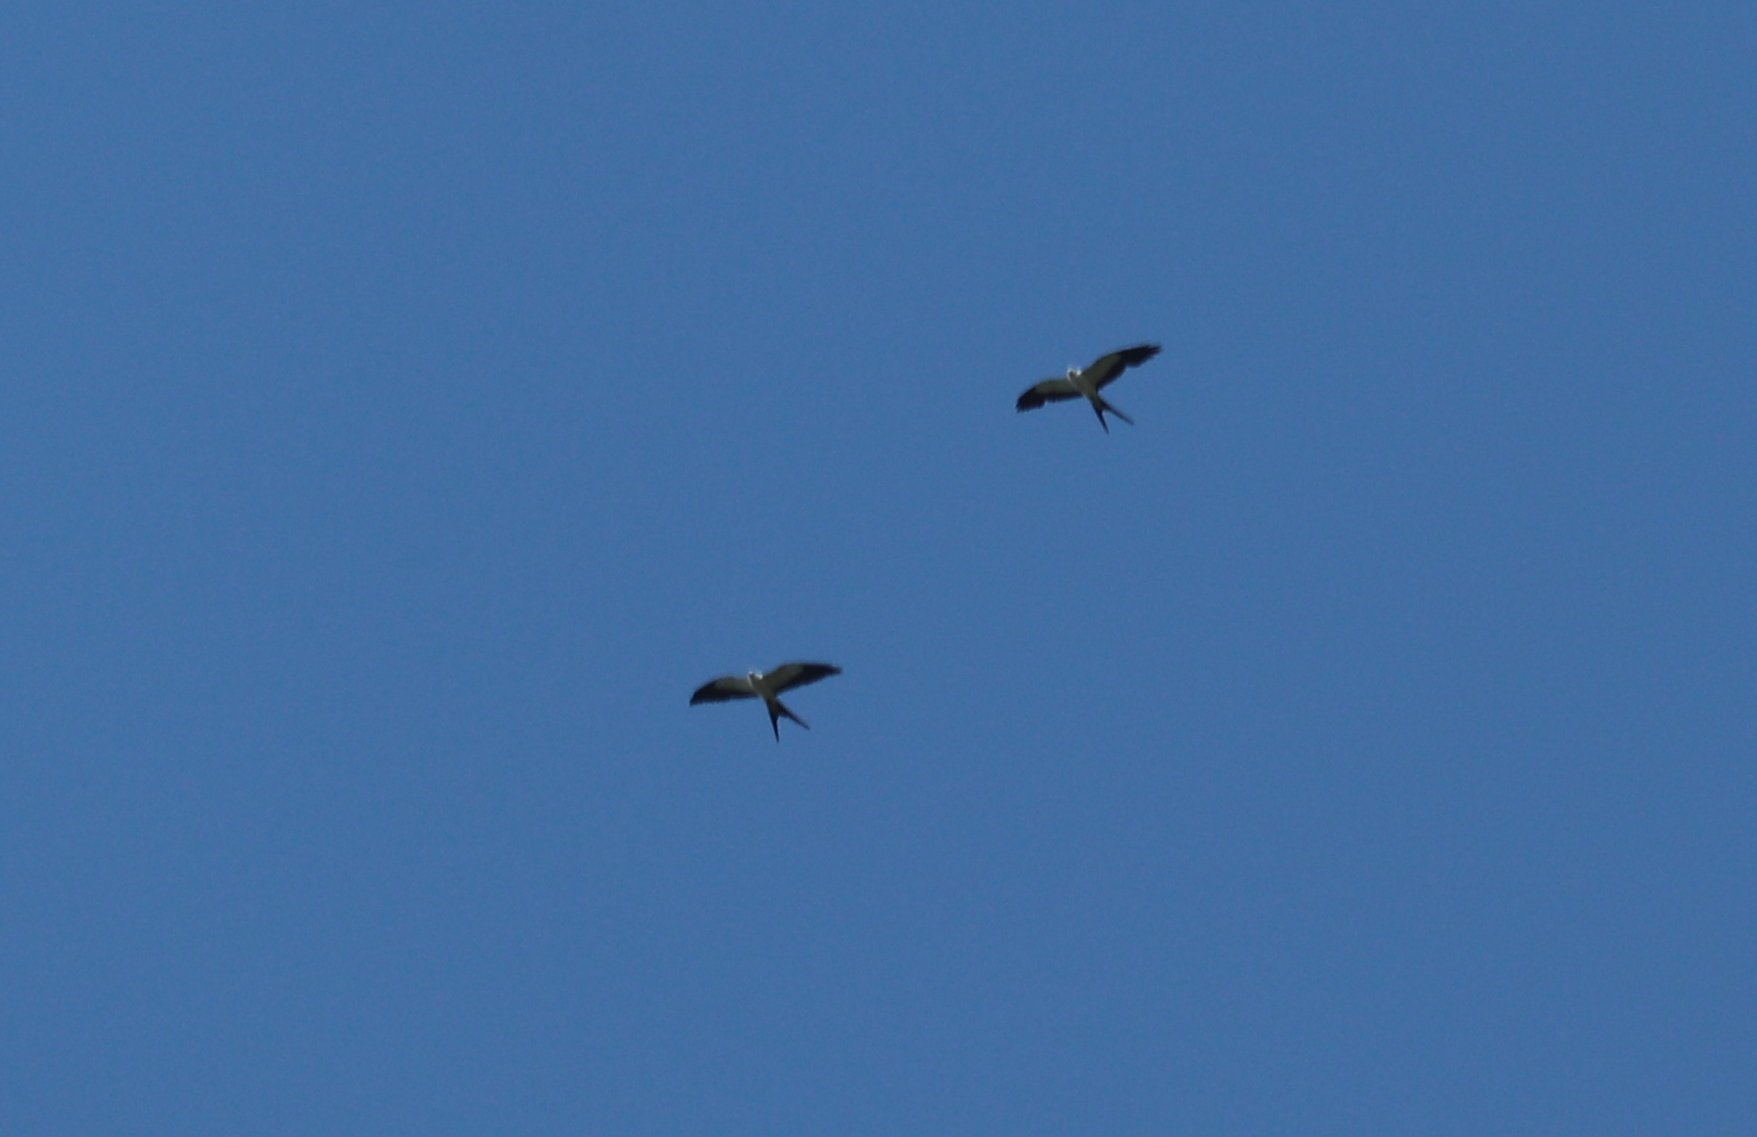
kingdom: Animalia
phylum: Chordata
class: Aves
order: Accipitriformes
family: Accipitridae
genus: Elanoides
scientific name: Elanoides forficatus
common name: Swallow-tailed kite
